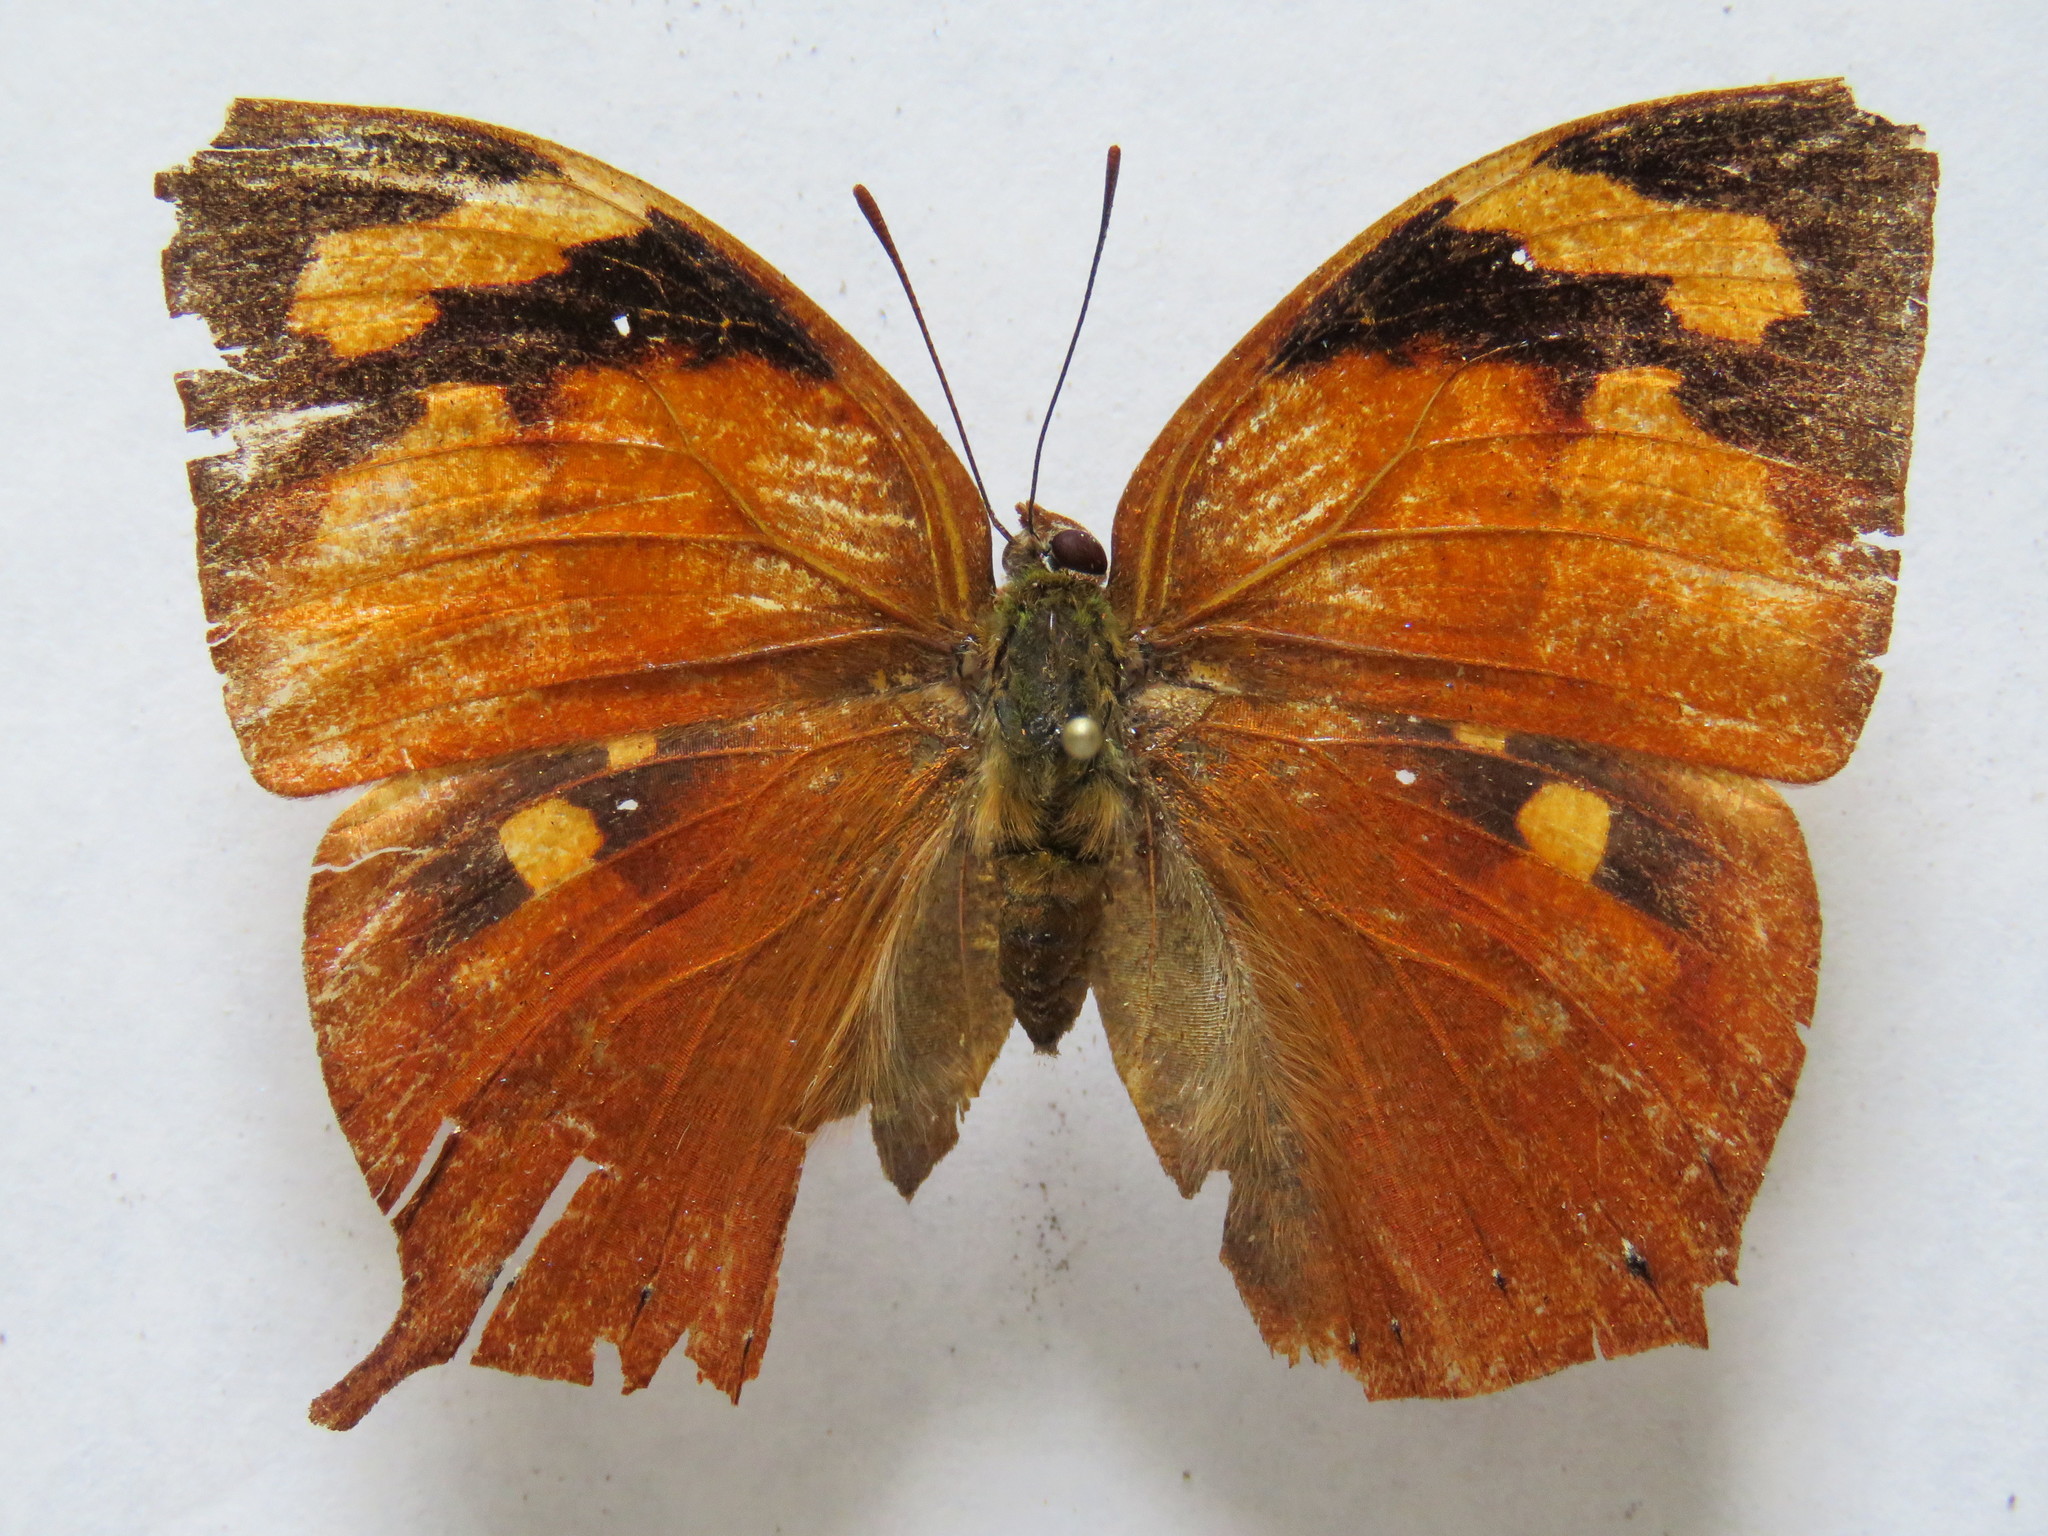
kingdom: Animalia
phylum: Arthropoda
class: Insecta
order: Lepidoptera
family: Nymphalidae
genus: Fountainea
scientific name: Fountainea
